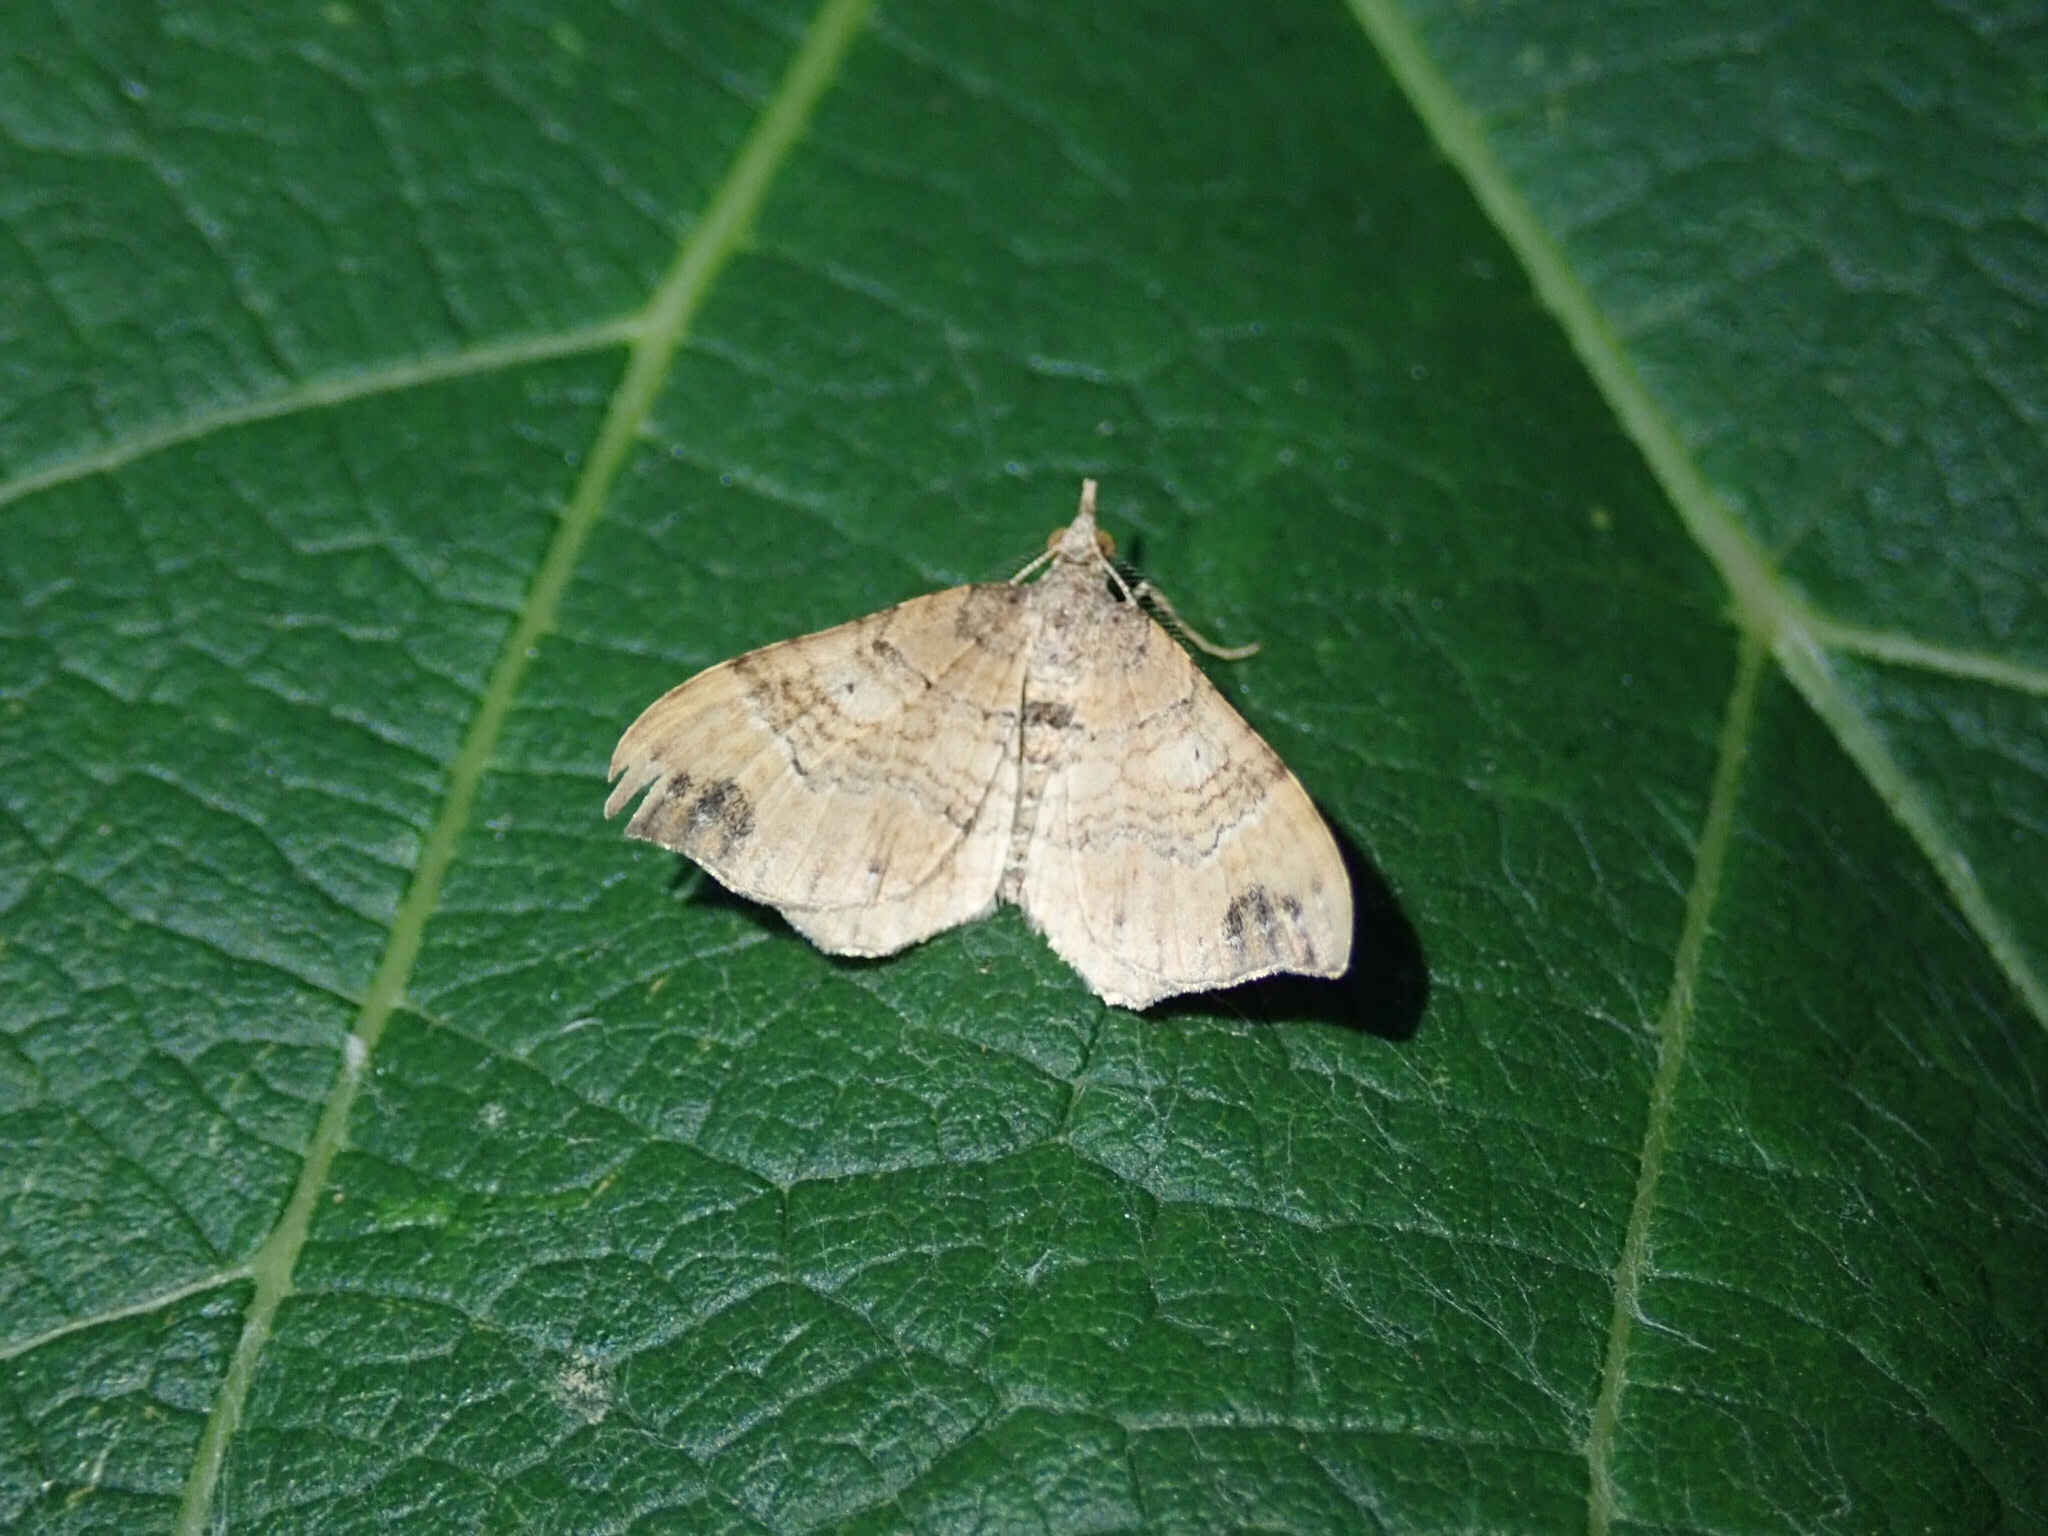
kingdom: Animalia
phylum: Arthropoda
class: Insecta
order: Lepidoptera
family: Geometridae
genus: Homodotis
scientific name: Homodotis megaspilata
